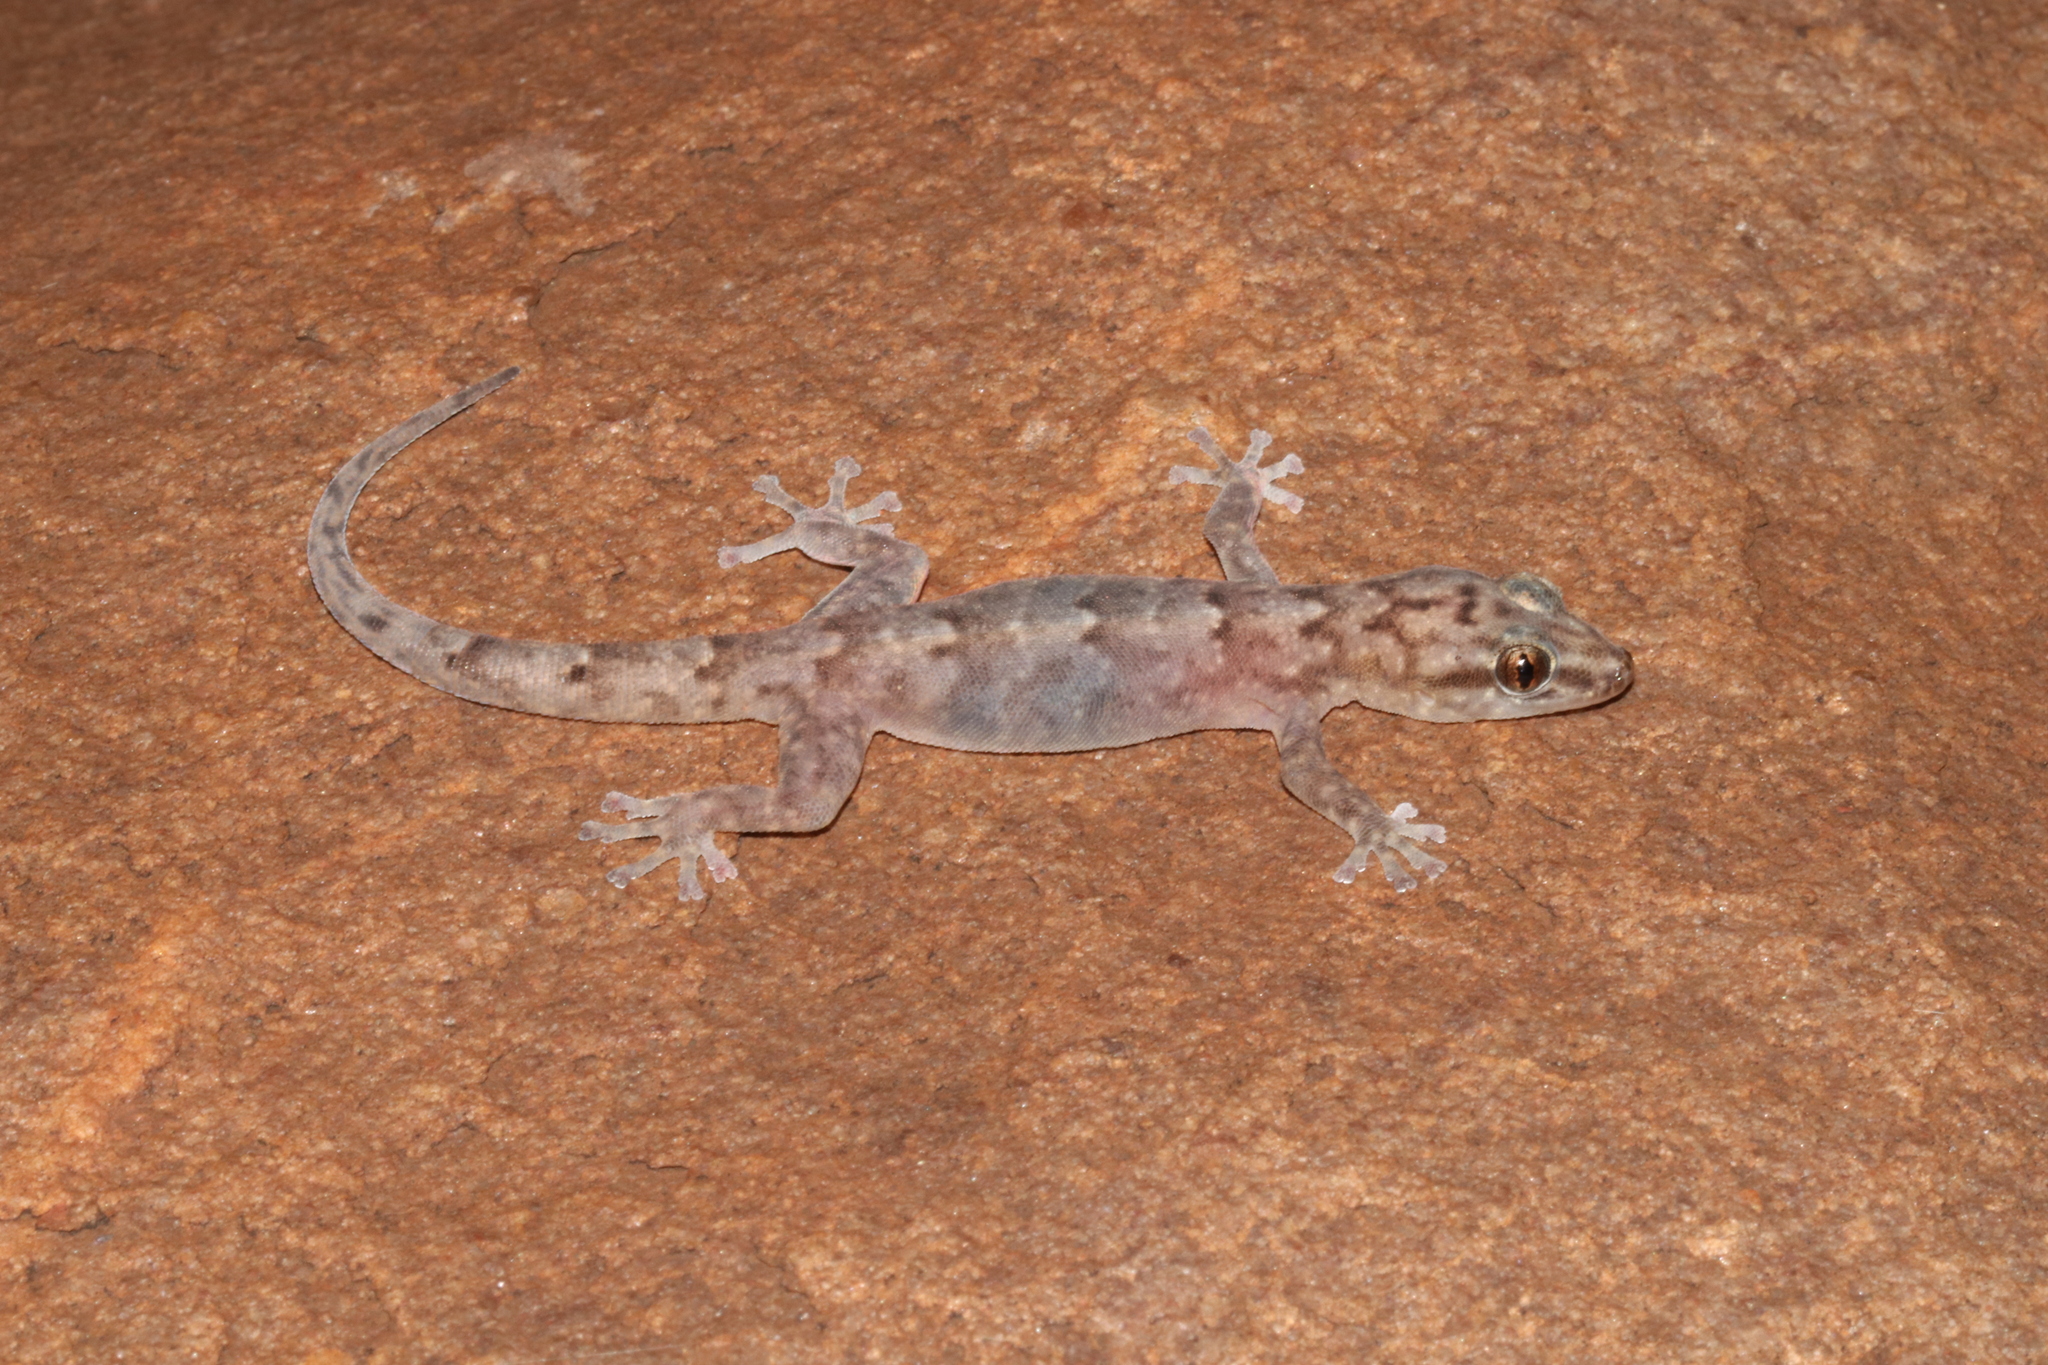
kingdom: Animalia
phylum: Chordata
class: Squamata
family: Gekkonidae
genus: Afroedura
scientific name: Afroedura pienaari
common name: Pienaar’s rock gecko
